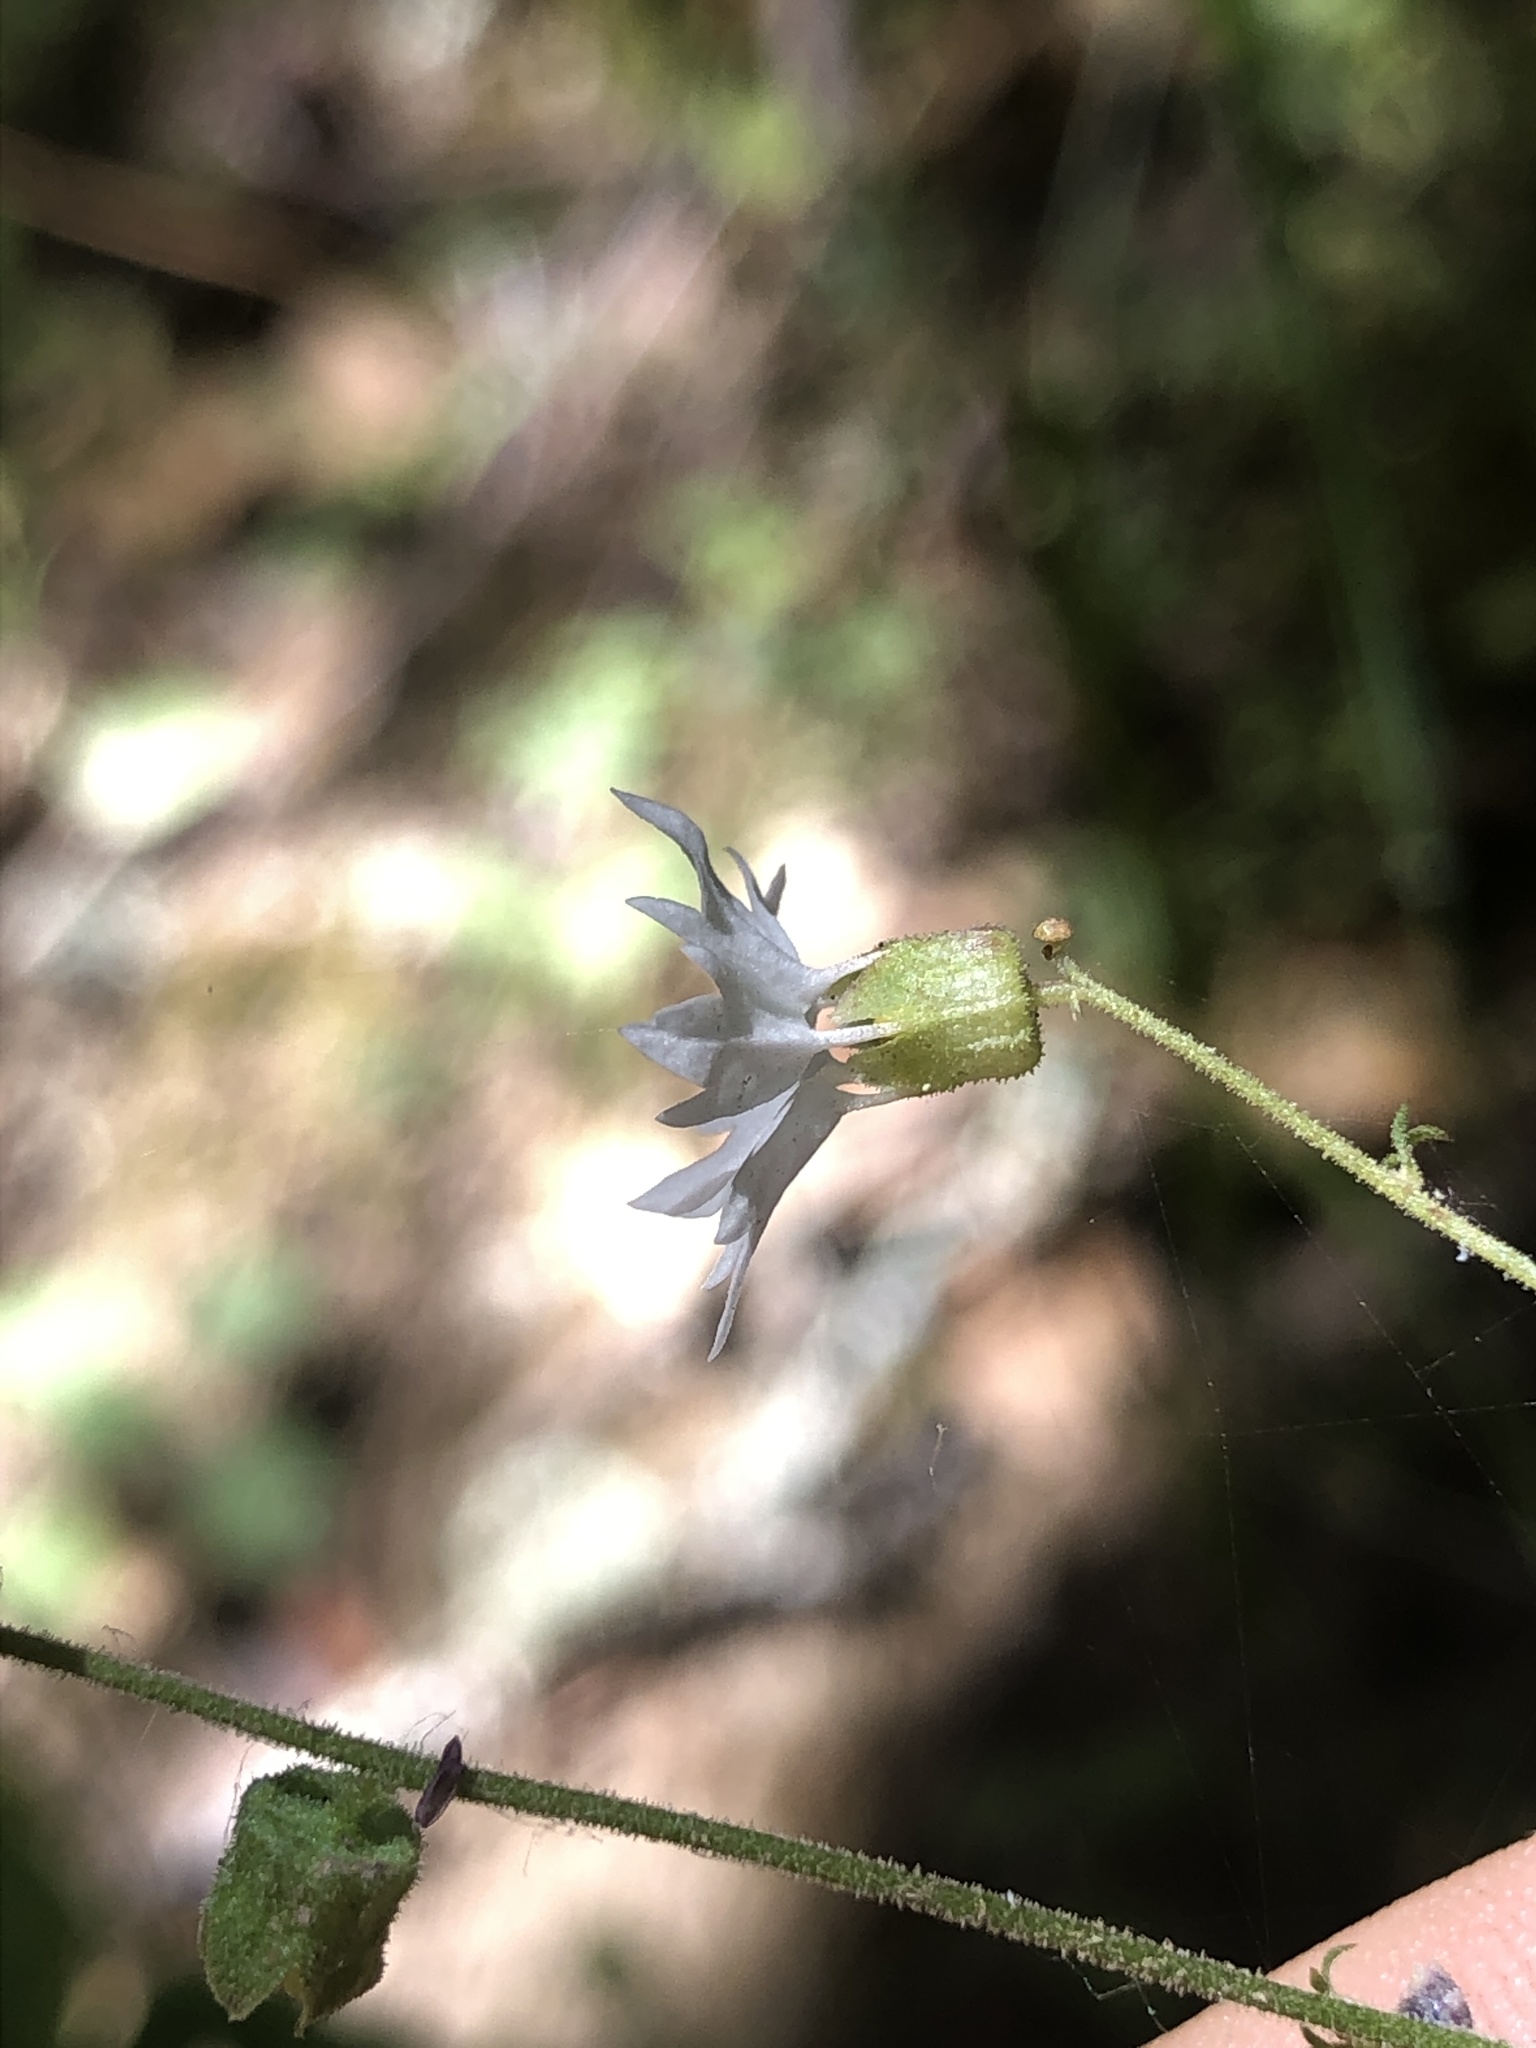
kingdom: Plantae
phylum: Tracheophyta
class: Magnoliopsida
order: Saxifragales
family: Saxifragaceae
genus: Lithophragma
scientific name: Lithophragma heterophyllum
